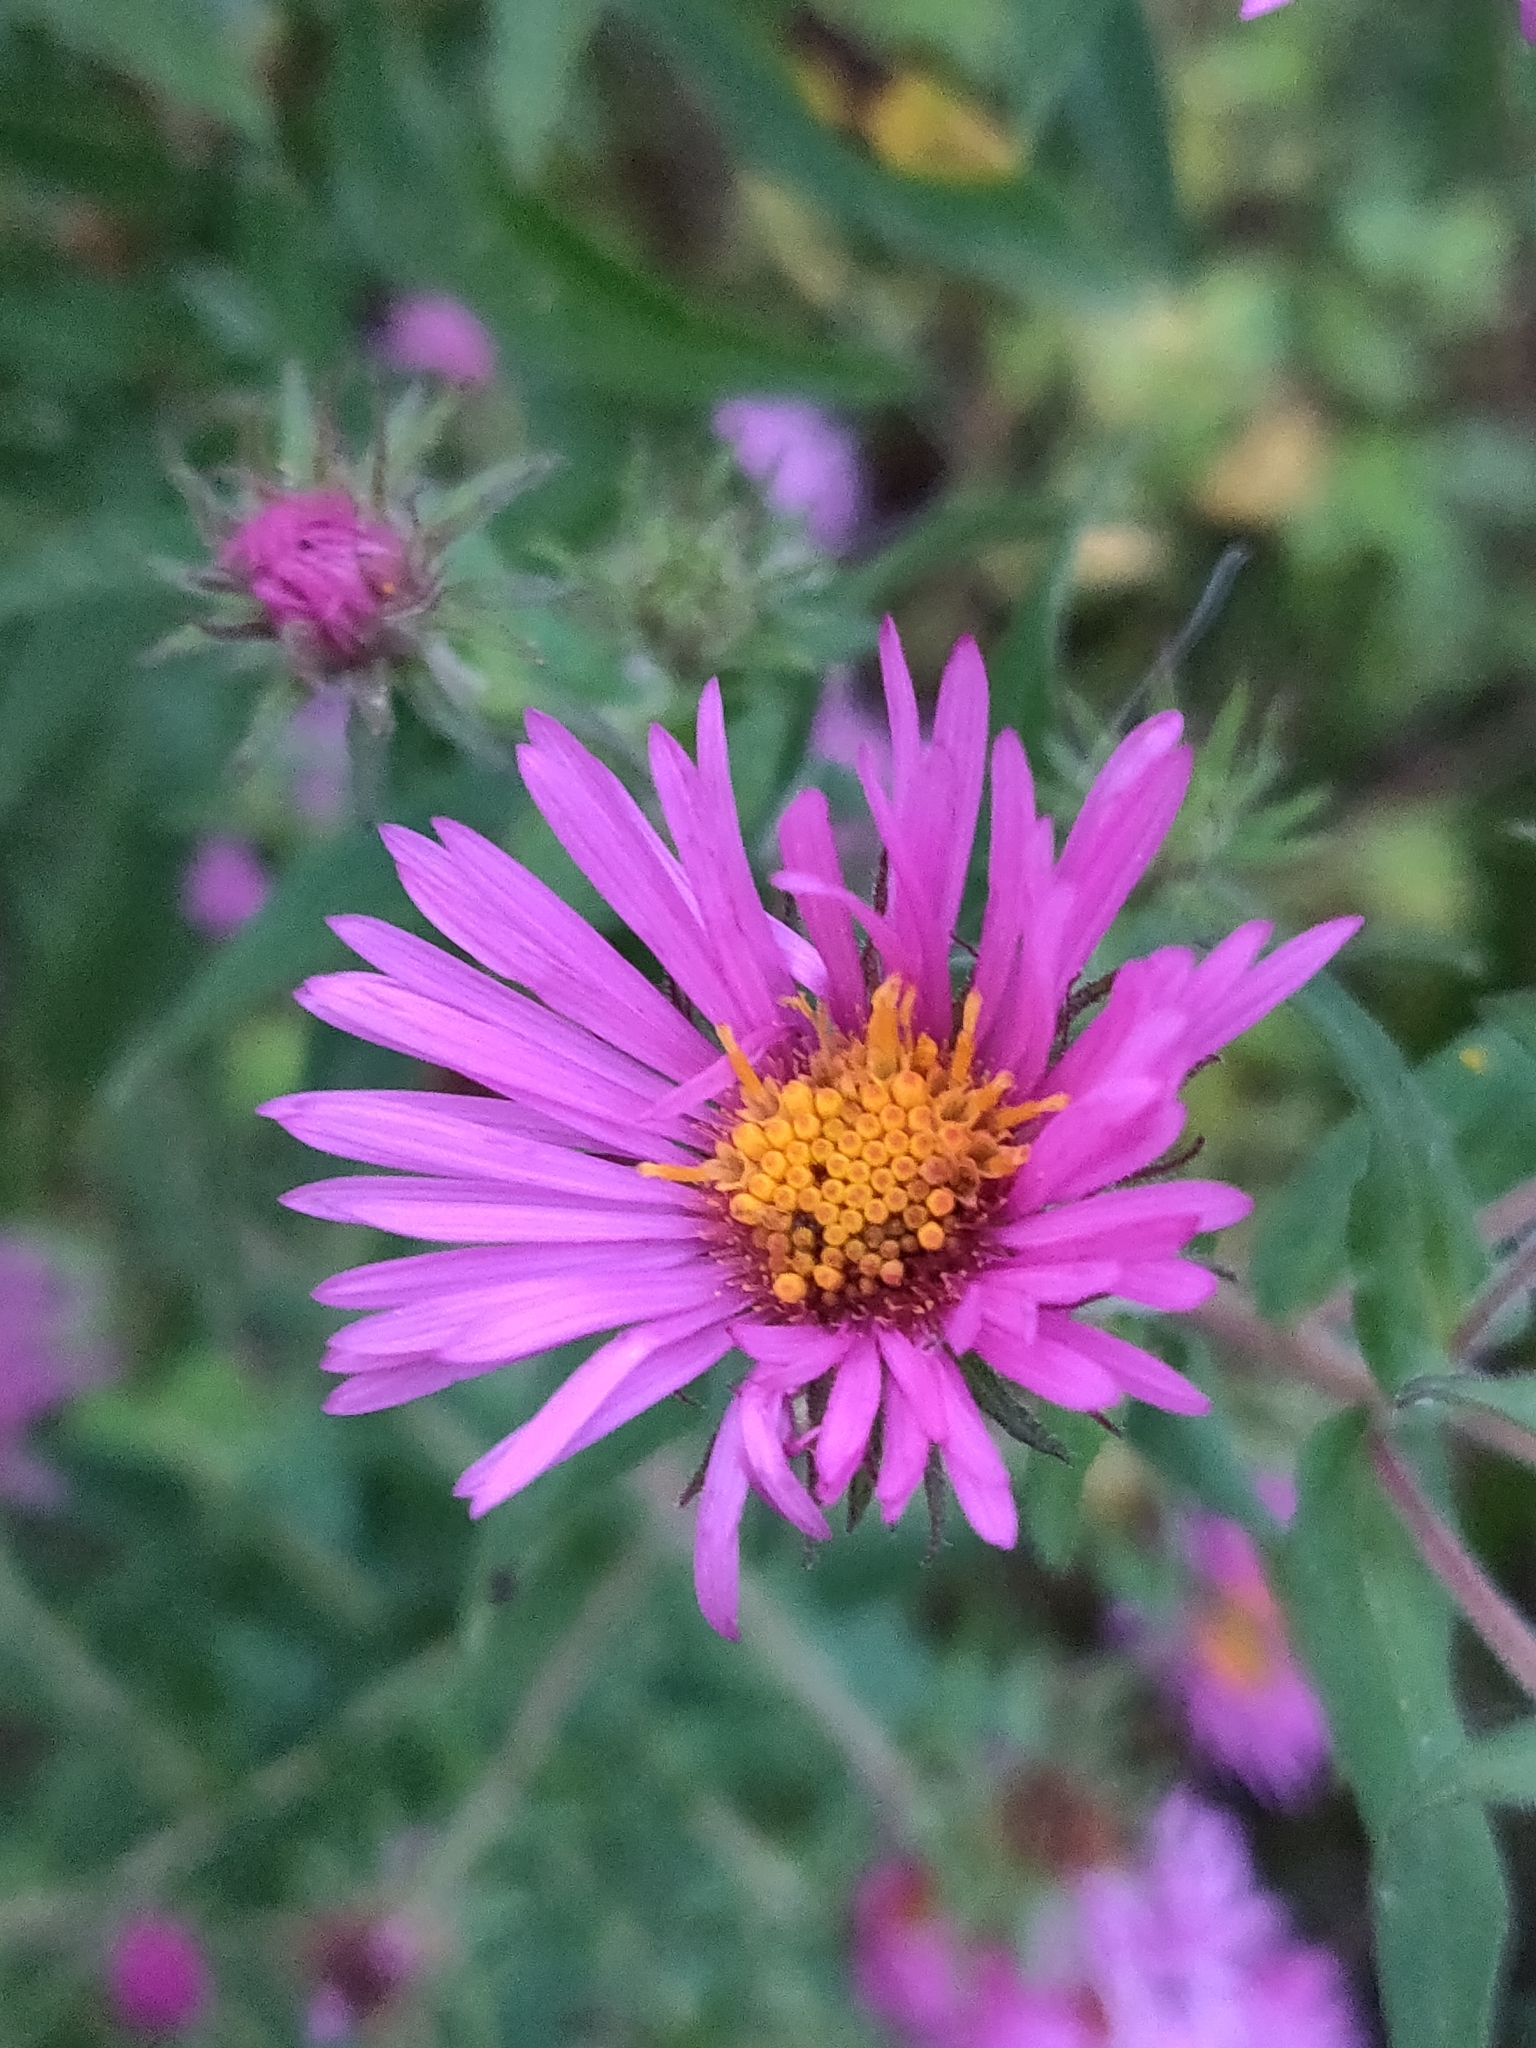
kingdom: Plantae
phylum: Tracheophyta
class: Magnoliopsida
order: Asterales
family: Asteraceae
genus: Symphyotrichum
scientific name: Symphyotrichum novae-angliae
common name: Michaelmas daisy
